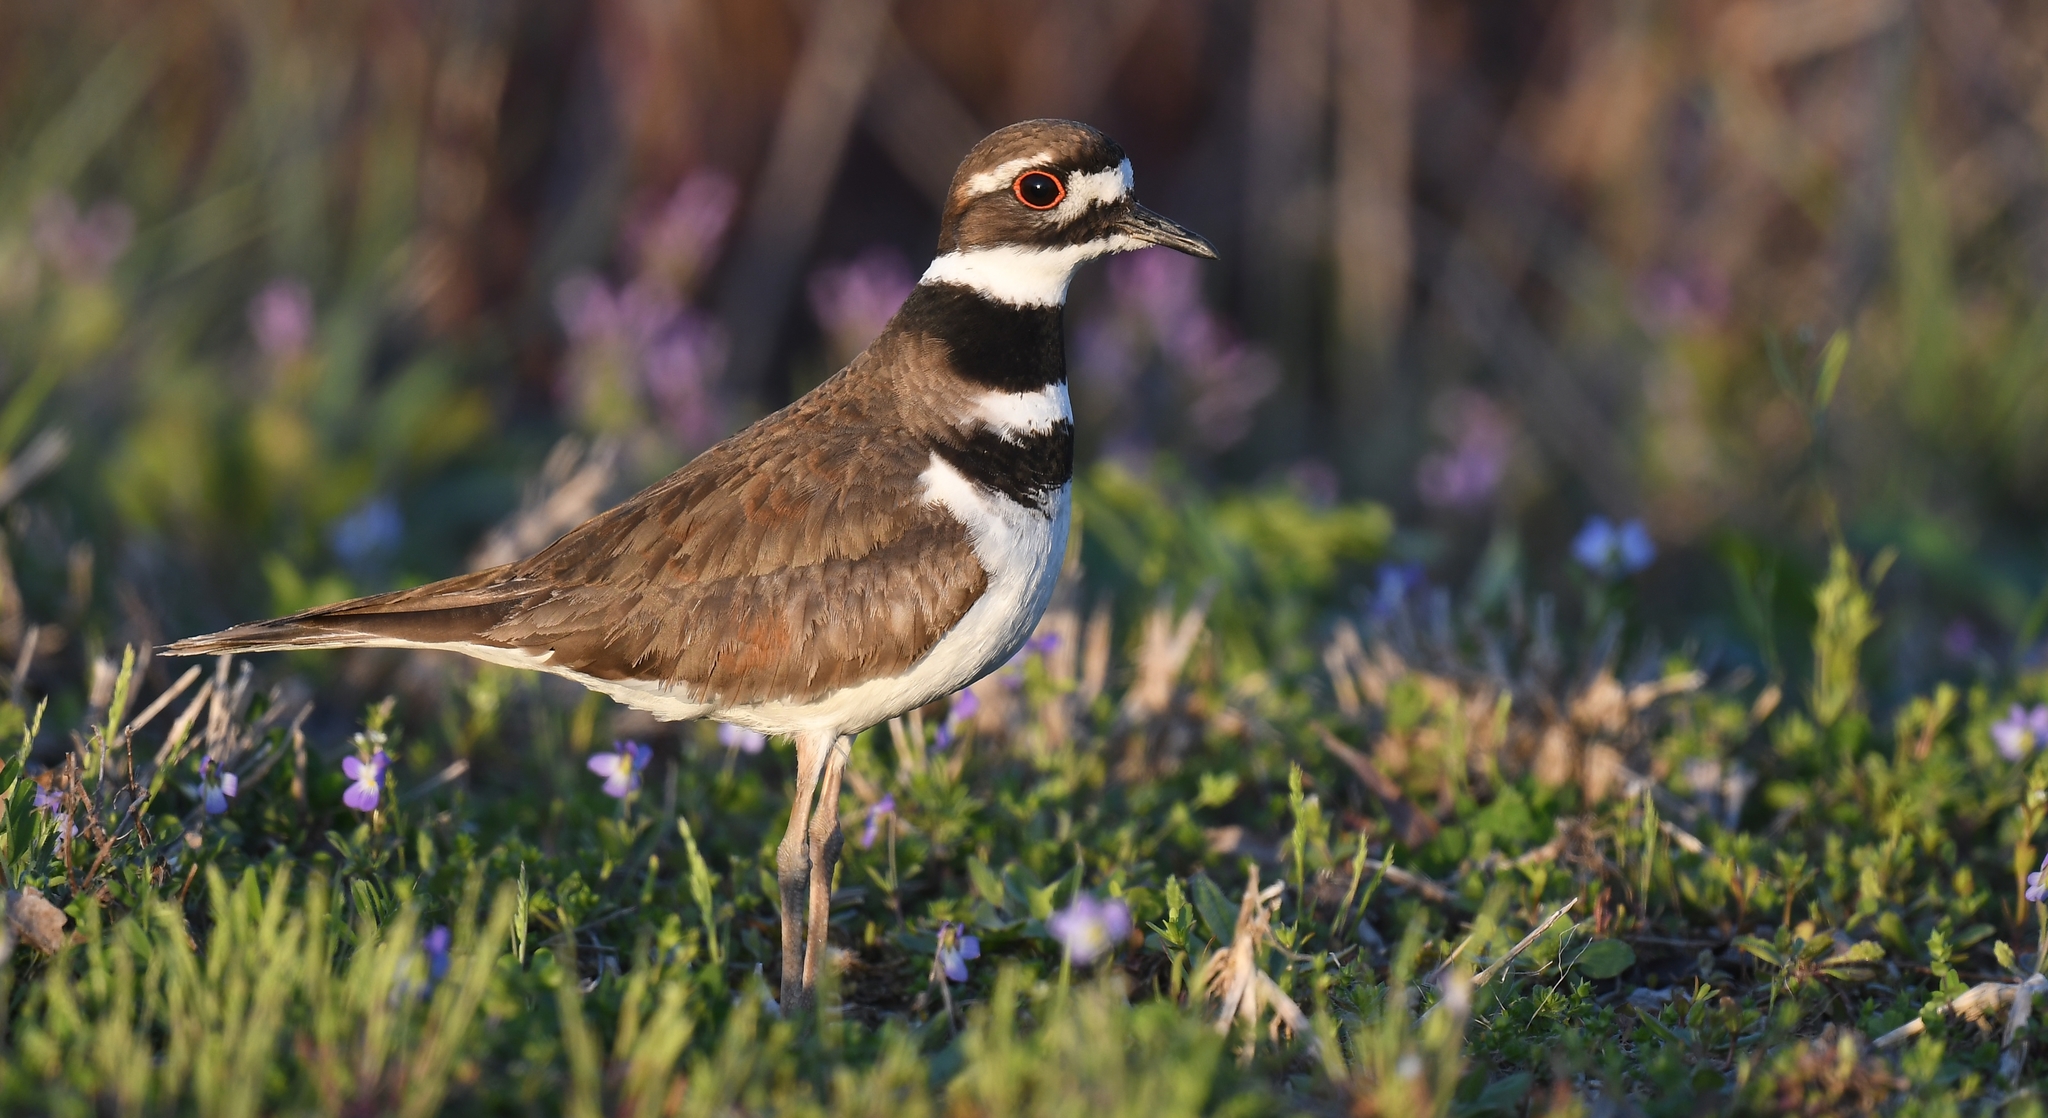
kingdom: Animalia
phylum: Chordata
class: Aves
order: Charadriiformes
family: Charadriidae
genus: Charadrius
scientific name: Charadrius vociferus
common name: Killdeer
